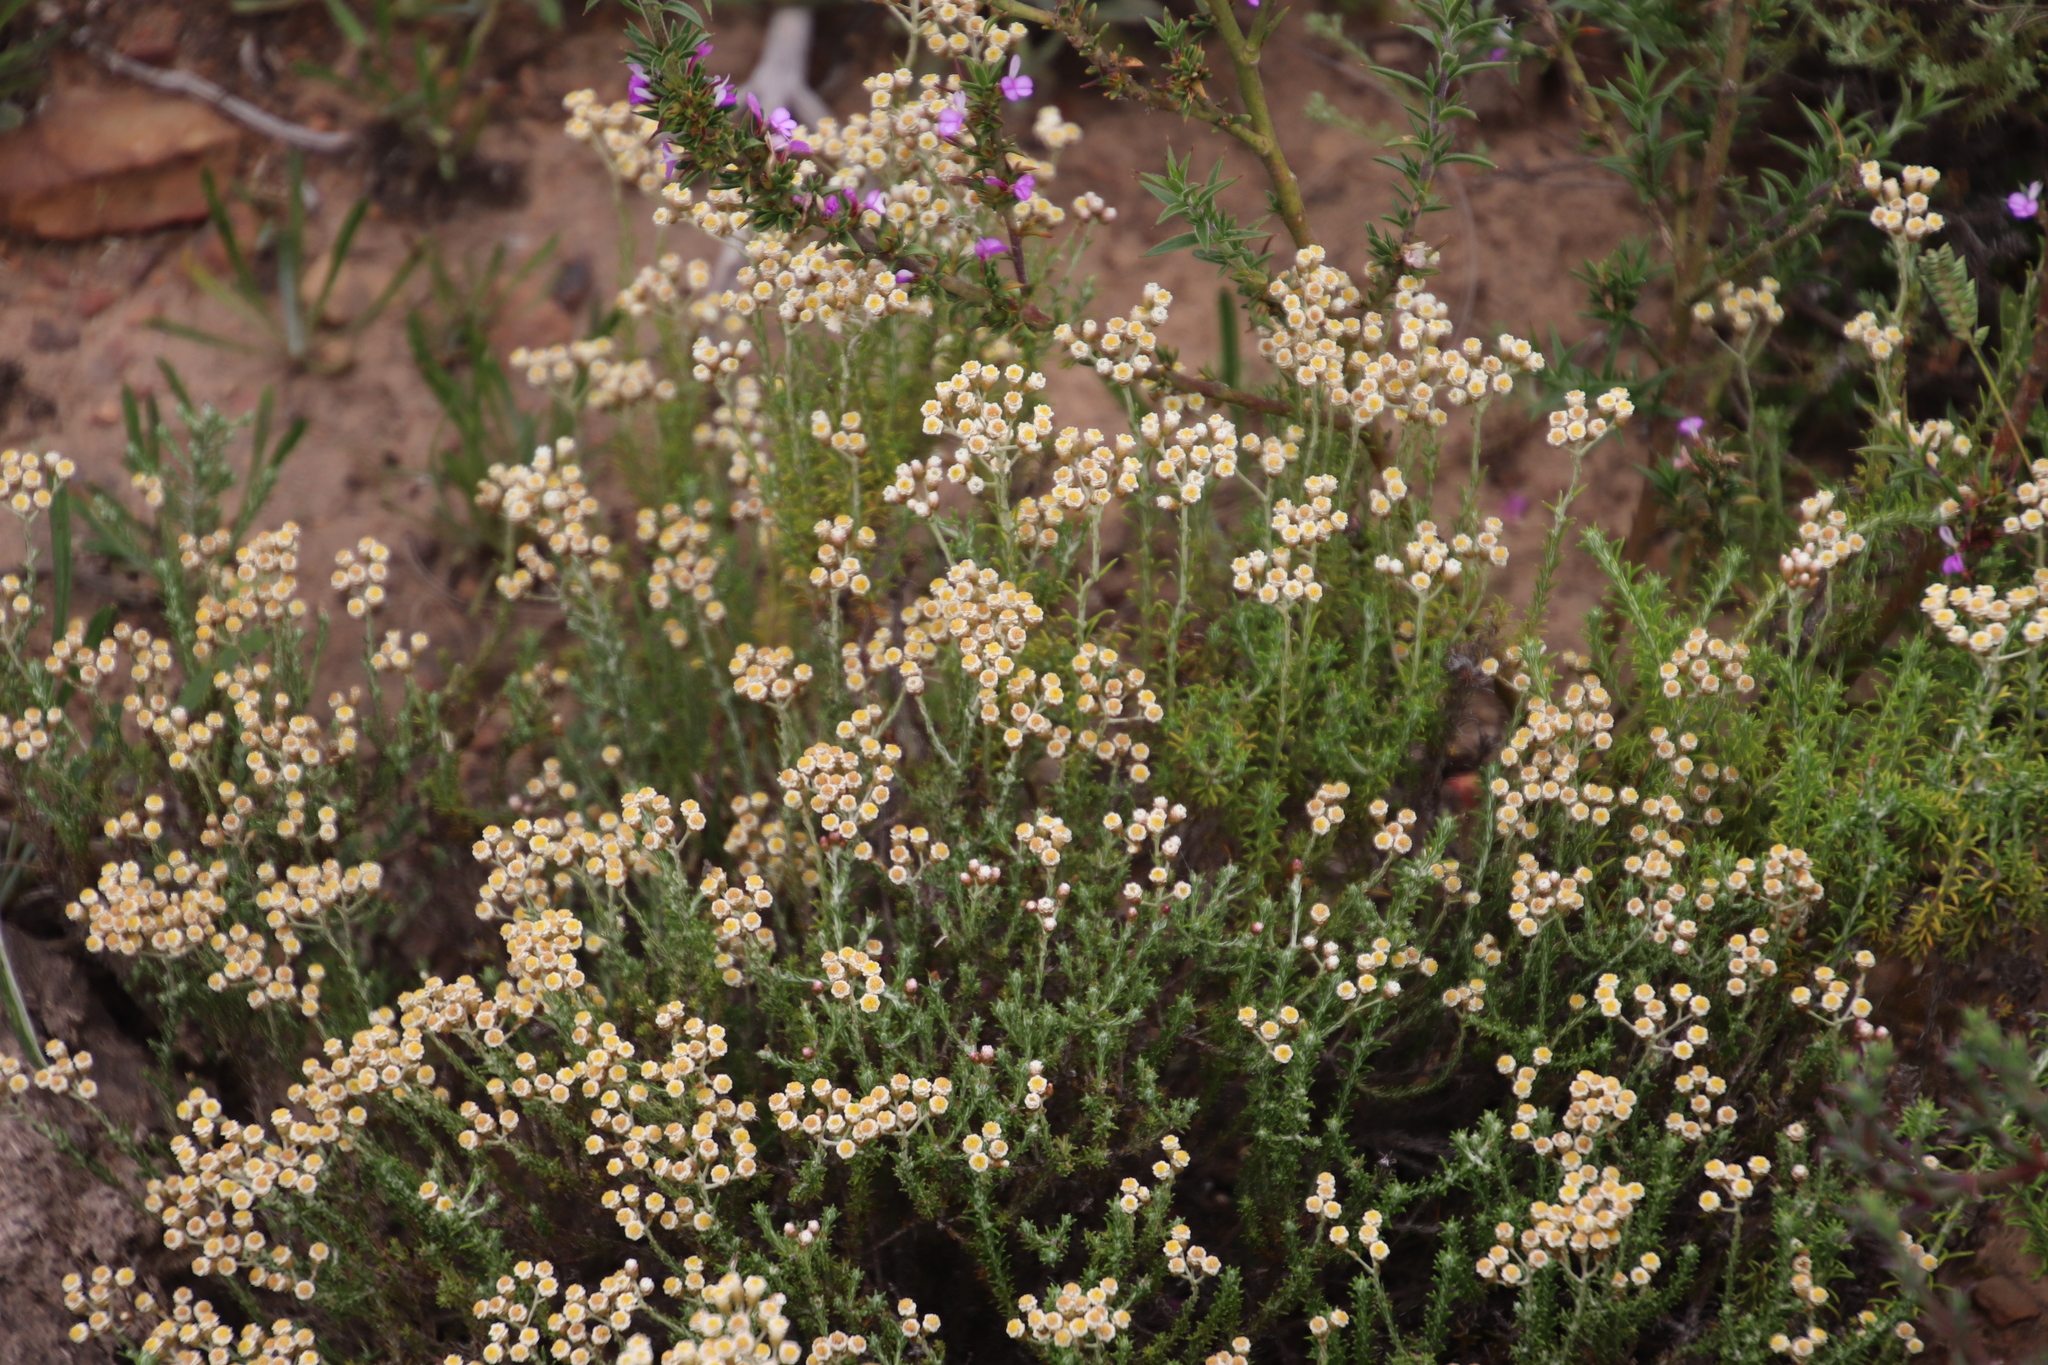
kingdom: Plantae
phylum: Tracheophyta
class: Magnoliopsida
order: Asterales
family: Asteraceae
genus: Helichrysum
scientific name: Helichrysum teretifolium
